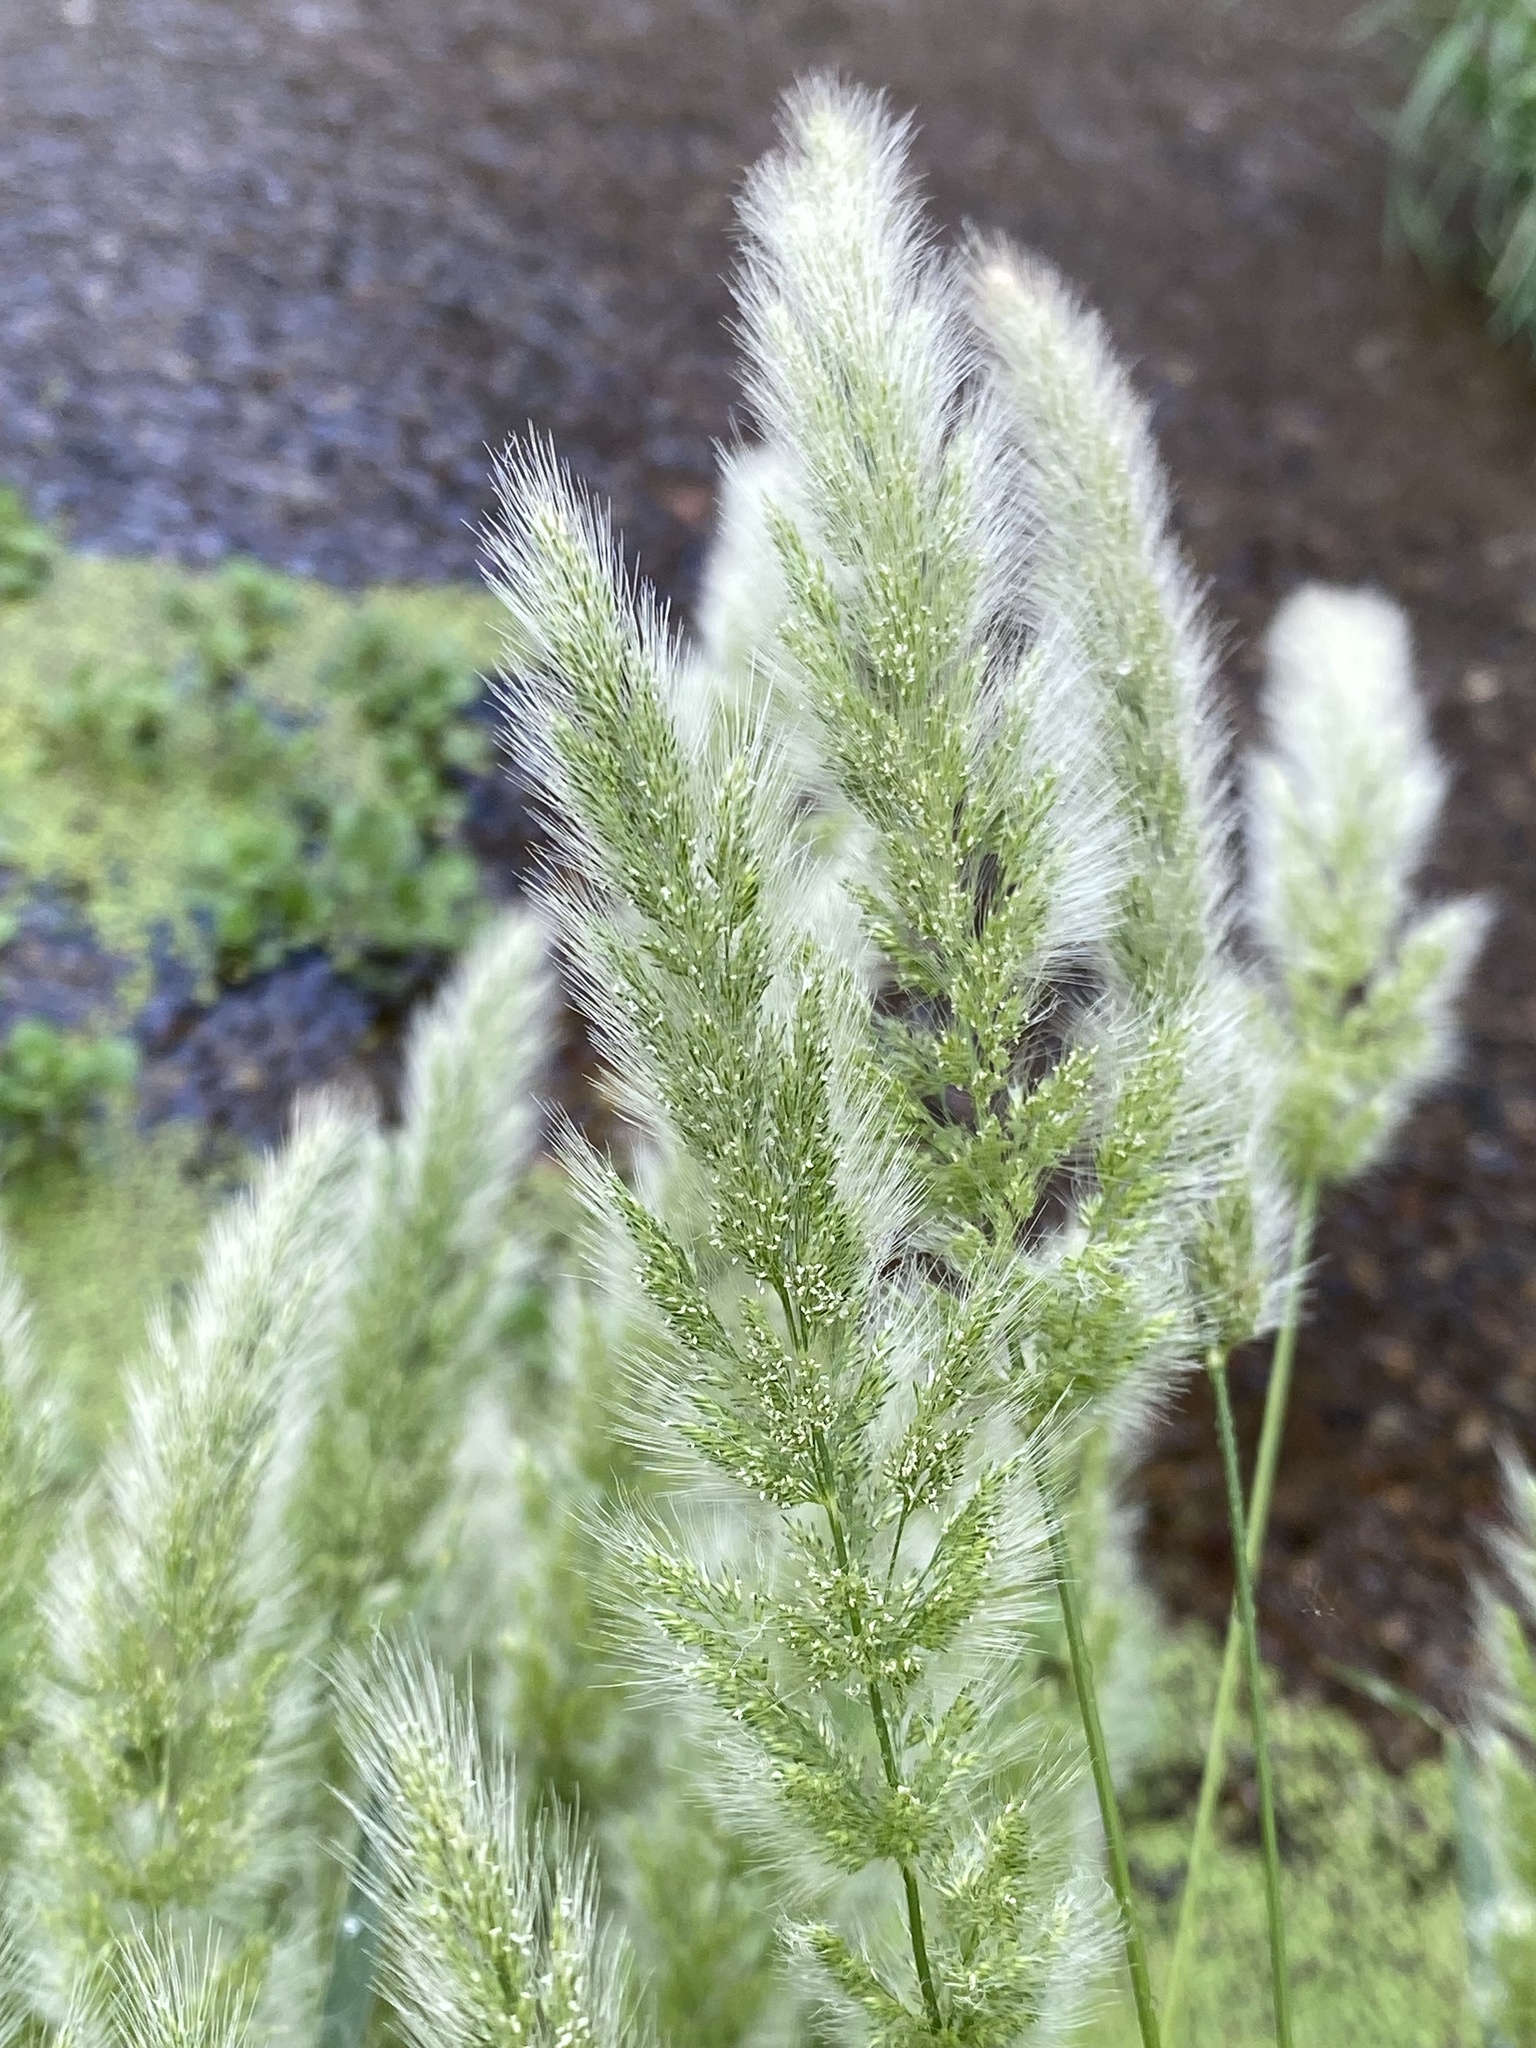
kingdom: Plantae
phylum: Tracheophyta
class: Liliopsida
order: Poales
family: Poaceae
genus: Polypogon
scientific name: Polypogon monspeliensis
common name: Annual rabbitsfoot grass
